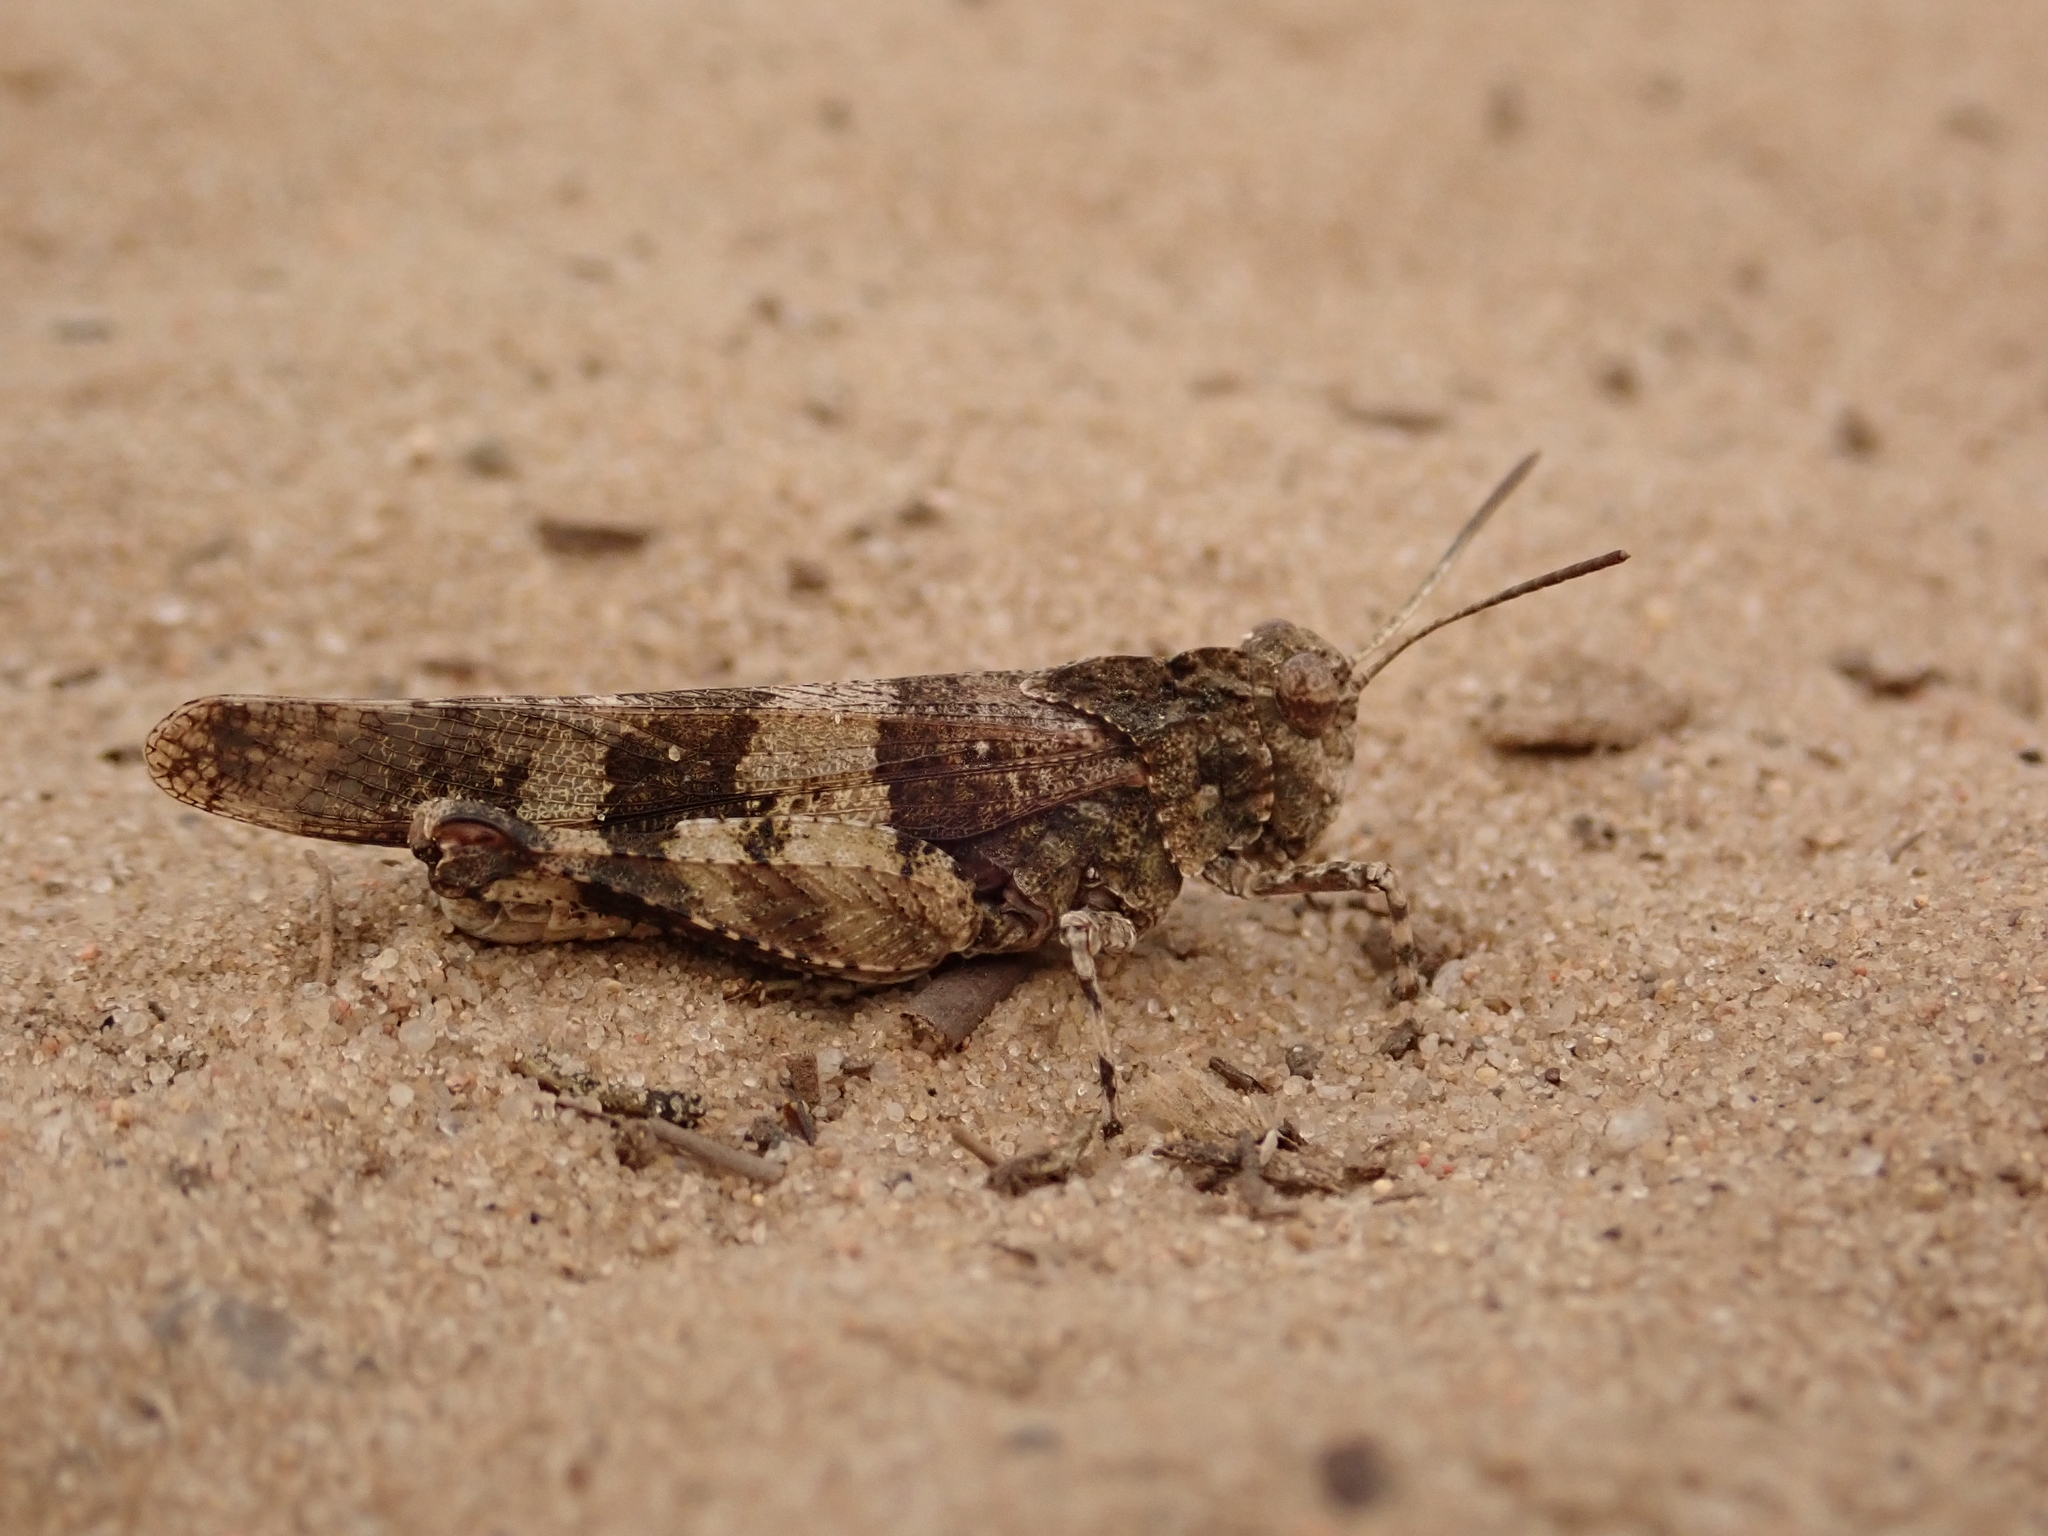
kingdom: Animalia
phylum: Arthropoda
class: Insecta
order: Orthoptera
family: Acrididae
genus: Oedipoda
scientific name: Oedipoda caerulescens
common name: Blue-winged grasshopper
